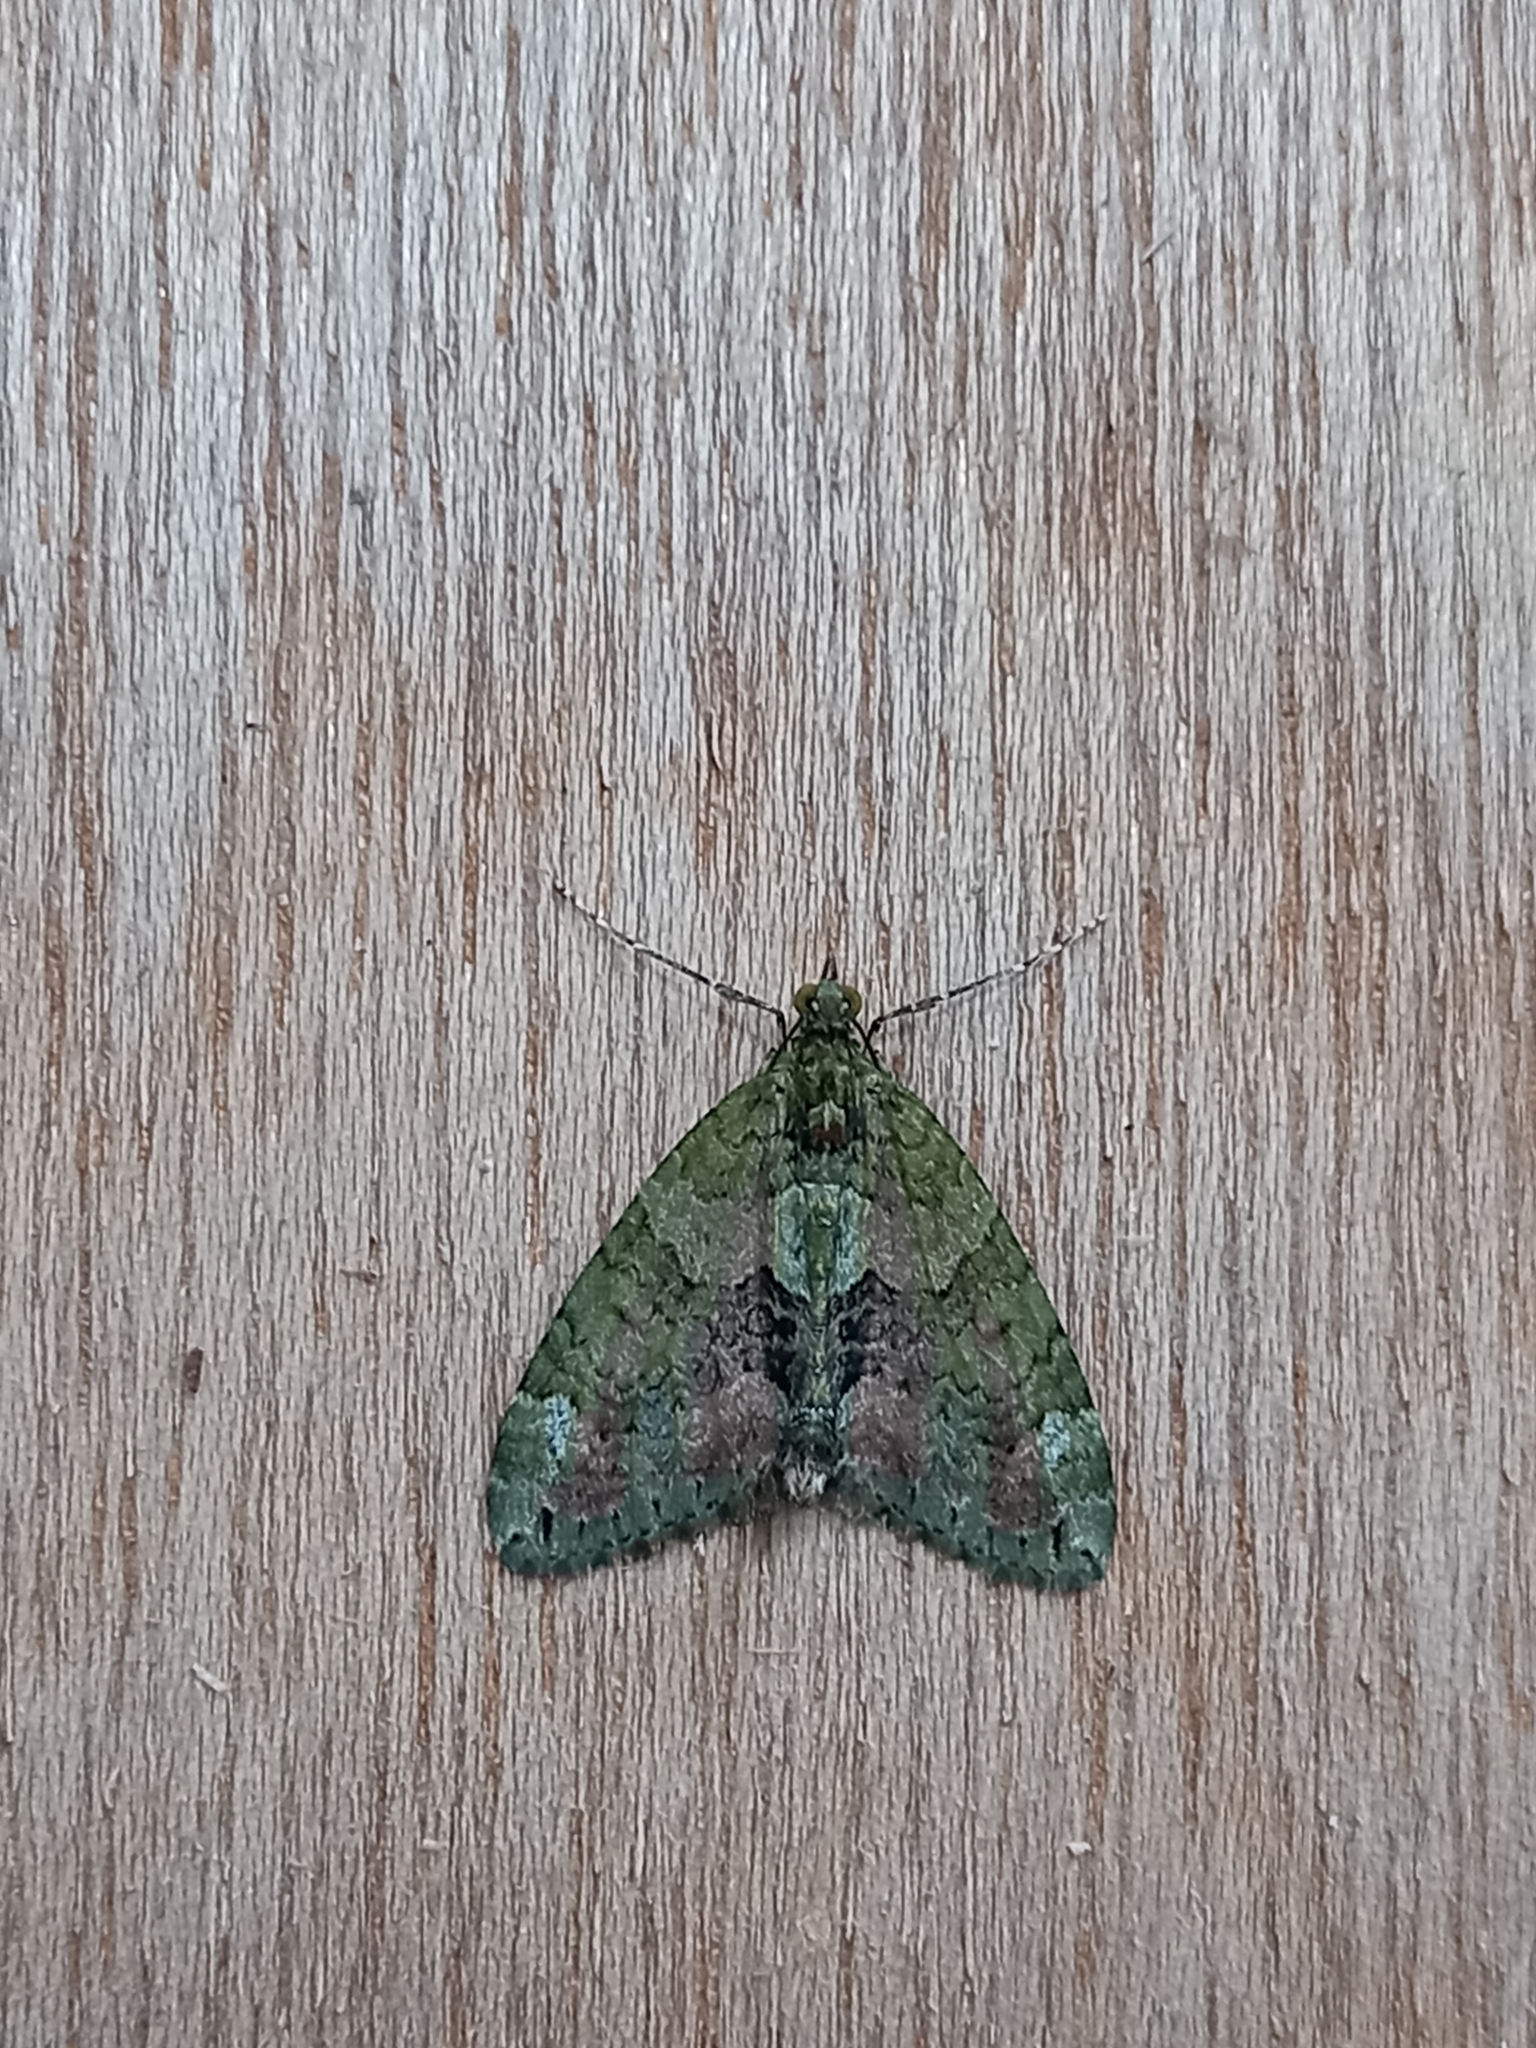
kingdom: Animalia
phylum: Arthropoda
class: Insecta
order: Lepidoptera
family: Geometridae
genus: Chloroclysta
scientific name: Chloroclysta siterata
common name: Red-green carpet
